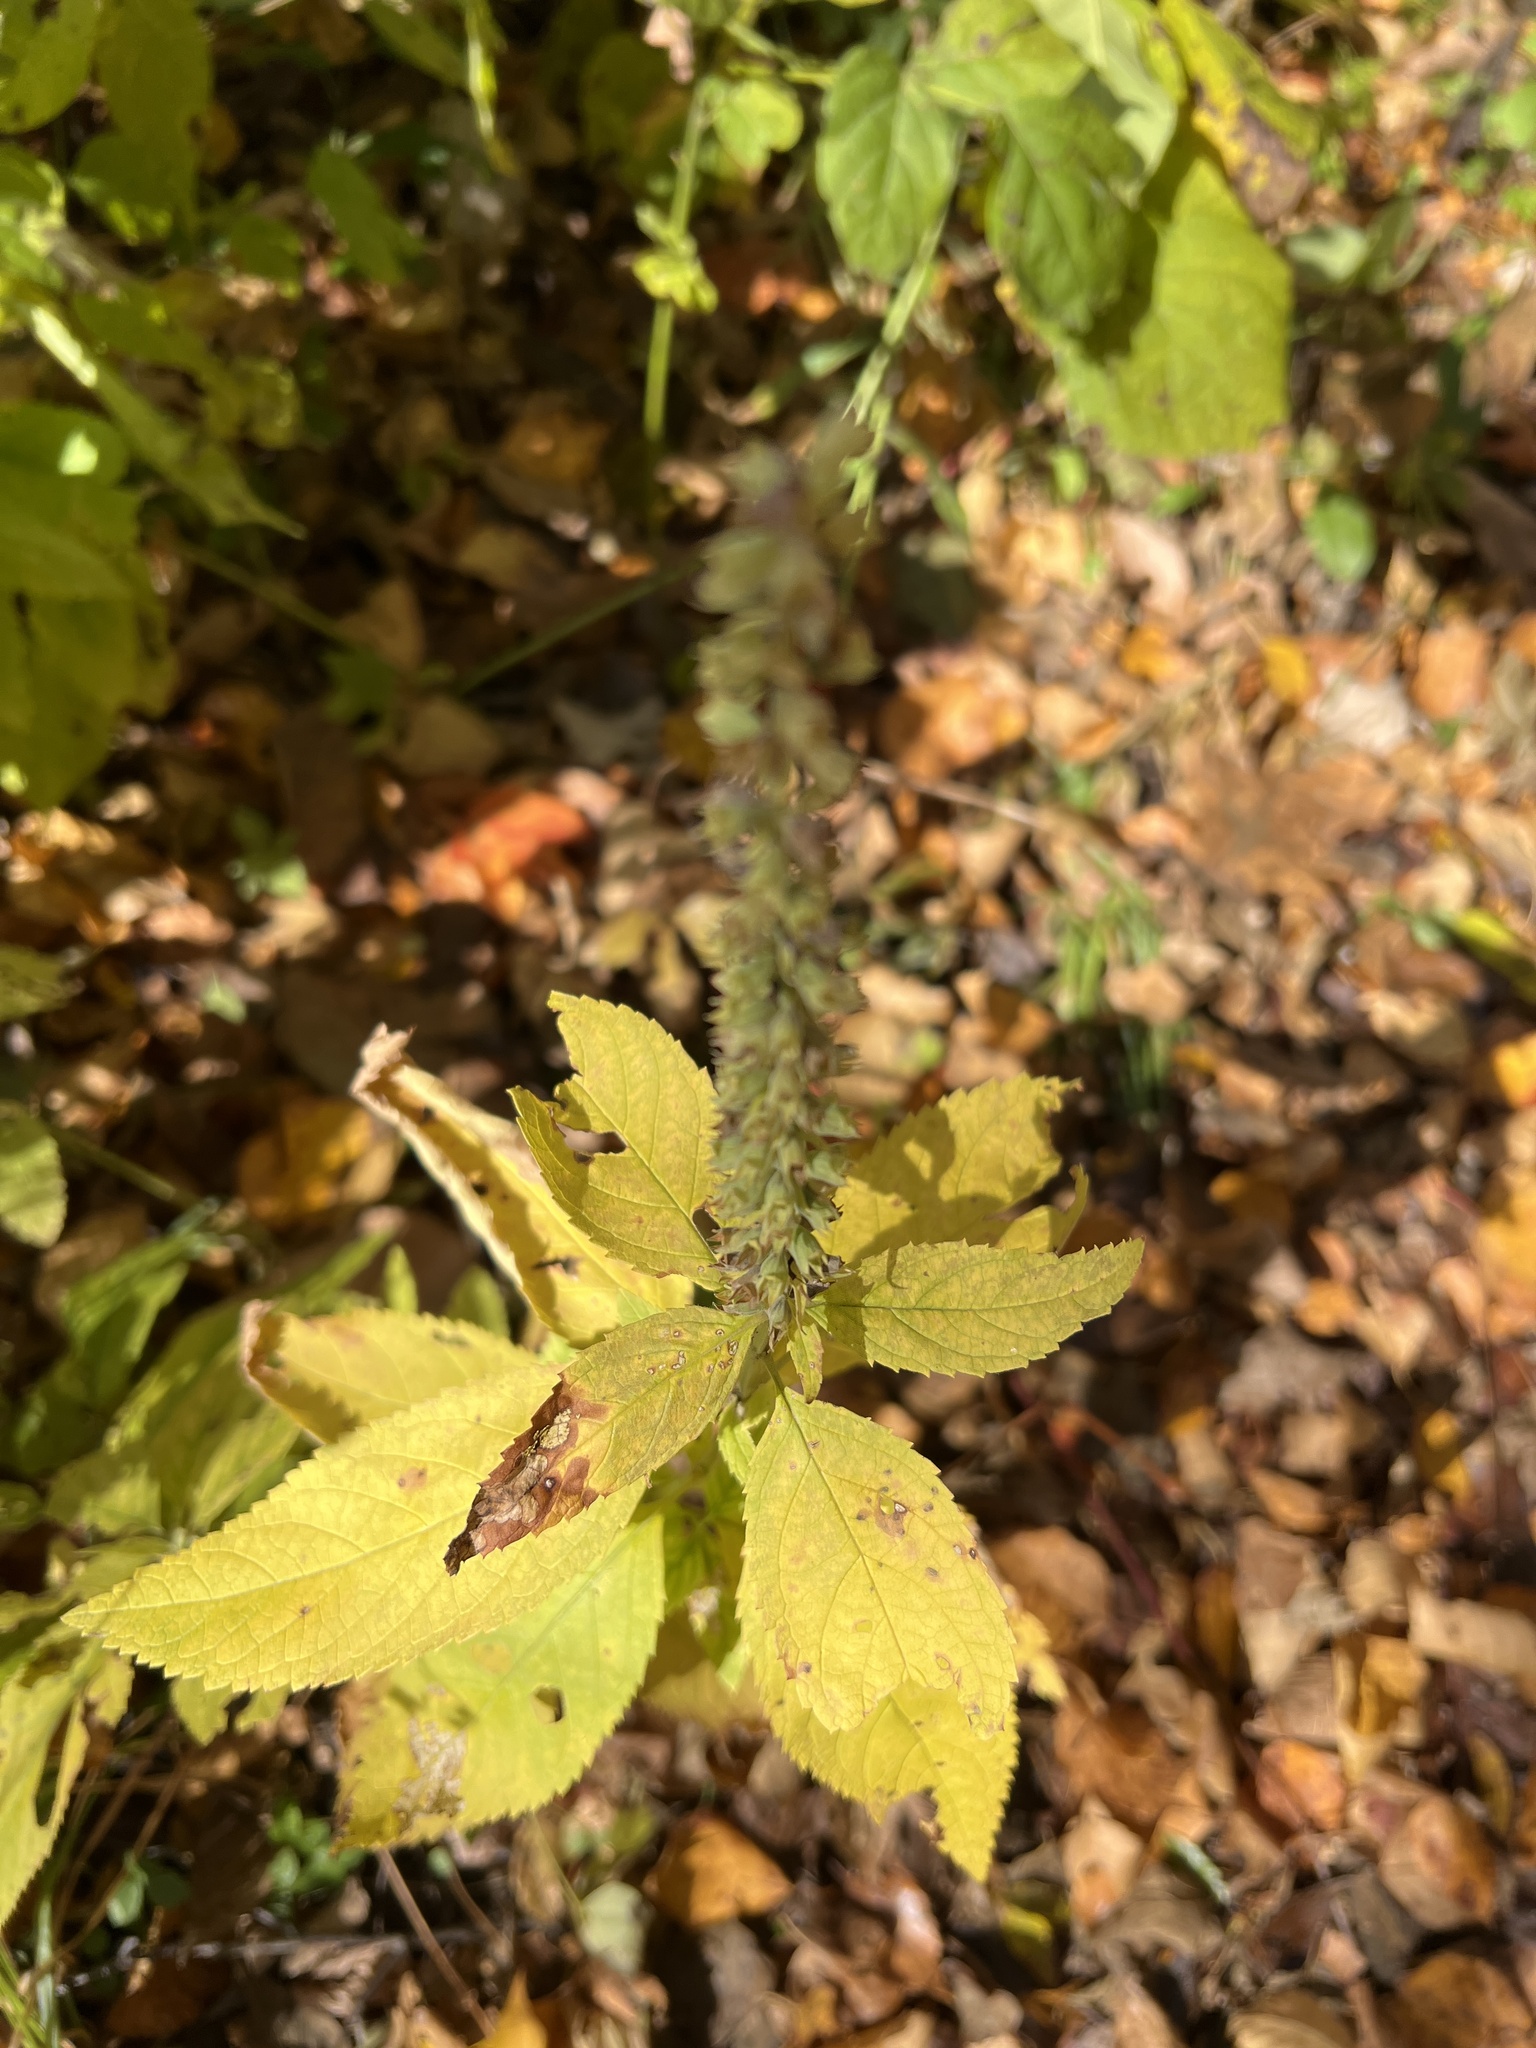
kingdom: Plantae
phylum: Tracheophyta
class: Magnoliopsida
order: Lamiales
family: Lamiaceae
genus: Teucrium
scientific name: Teucrium canadense
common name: American germander
